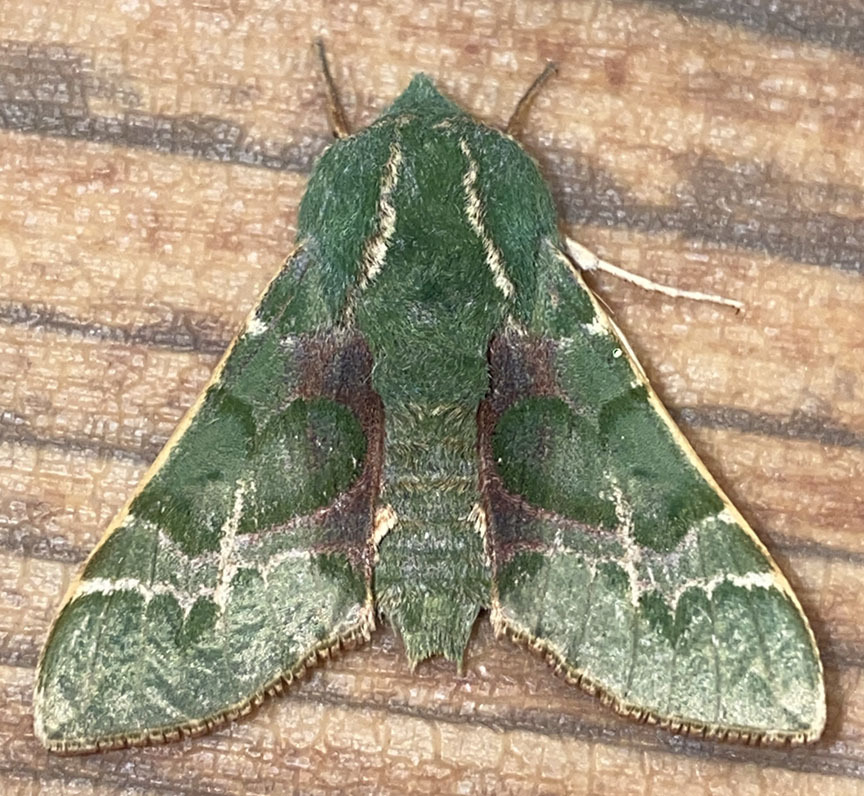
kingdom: Animalia
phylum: Arthropoda
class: Insecta
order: Lepidoptera
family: Sphingidae
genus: Proserpinus
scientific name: Proserpinus lucidus
